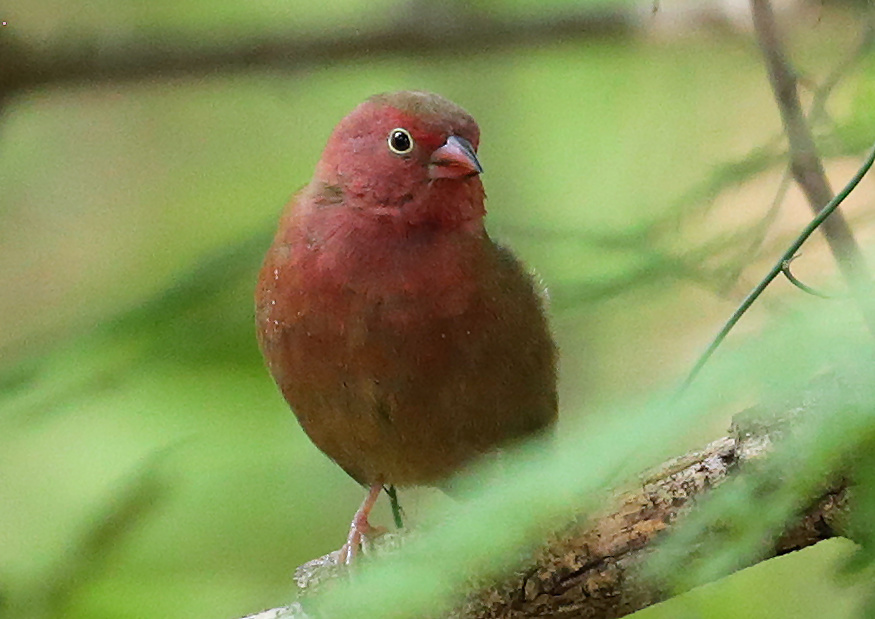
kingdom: Animalia
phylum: Chordata
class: Aves
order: Passeriformes
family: Estrildidae
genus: Lagonosticta
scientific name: Lagonosticta senegala
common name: Red-billed firefinch
